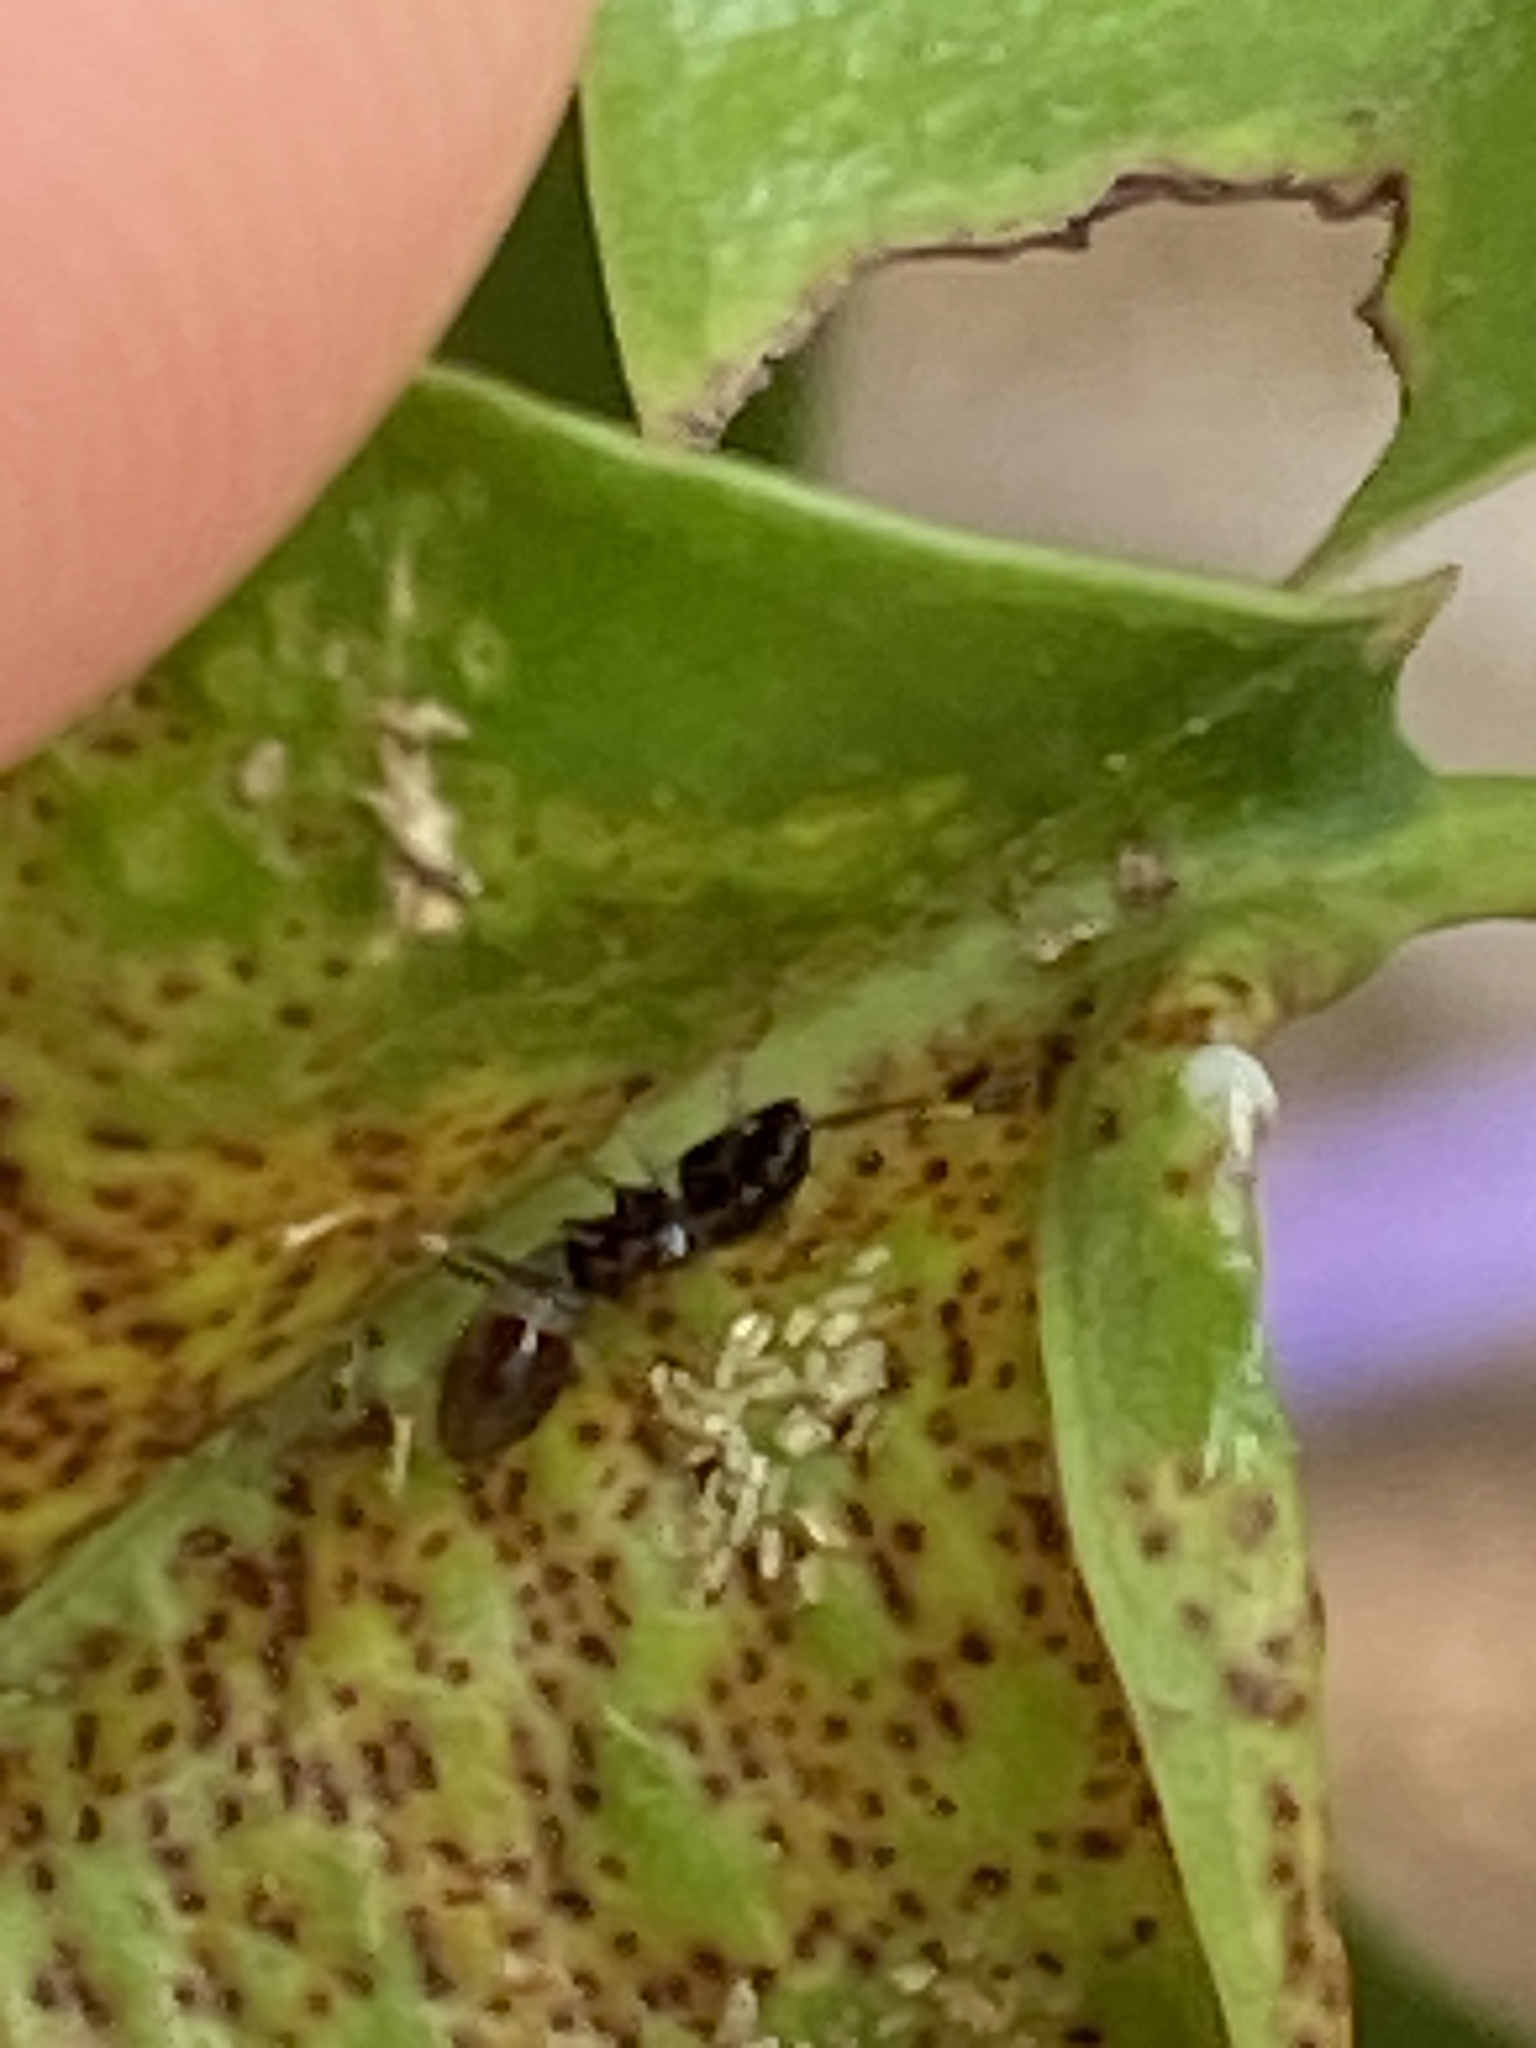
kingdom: Animalia
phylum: Arthropoda
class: Insecta
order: Thysanoptera
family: Phlaeothripidae
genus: Gynaikothrips
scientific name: Gynaikothrips uzeli
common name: Leaf-gall thrips
